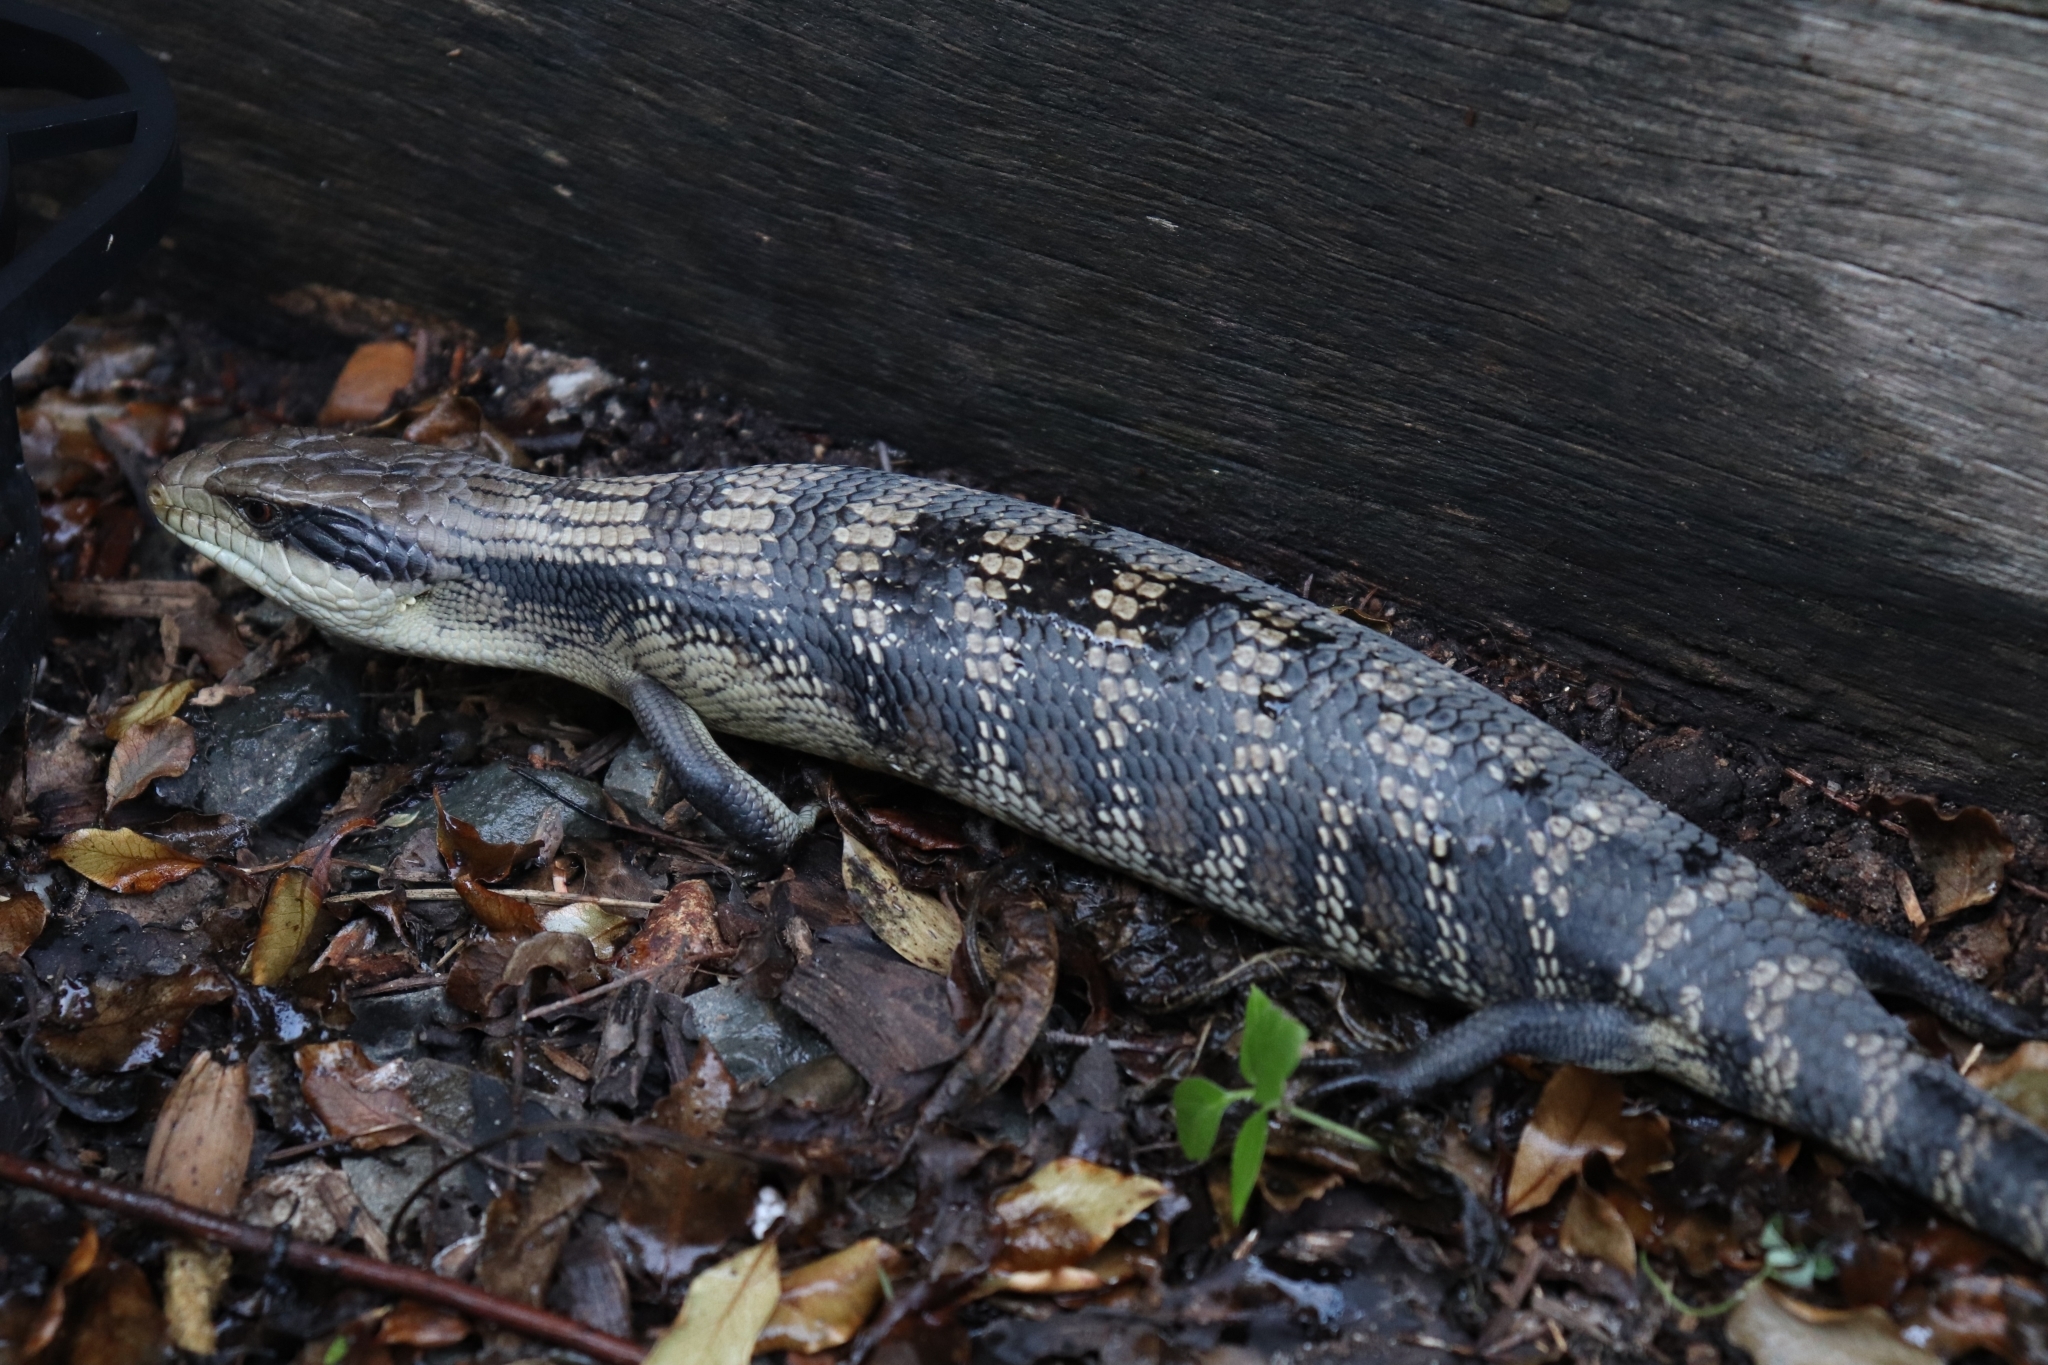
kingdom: Animalia
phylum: Chordata
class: Squamata
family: Scincidae
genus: Tiliqua
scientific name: Tiliqua scincoides
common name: Common bluetongue
